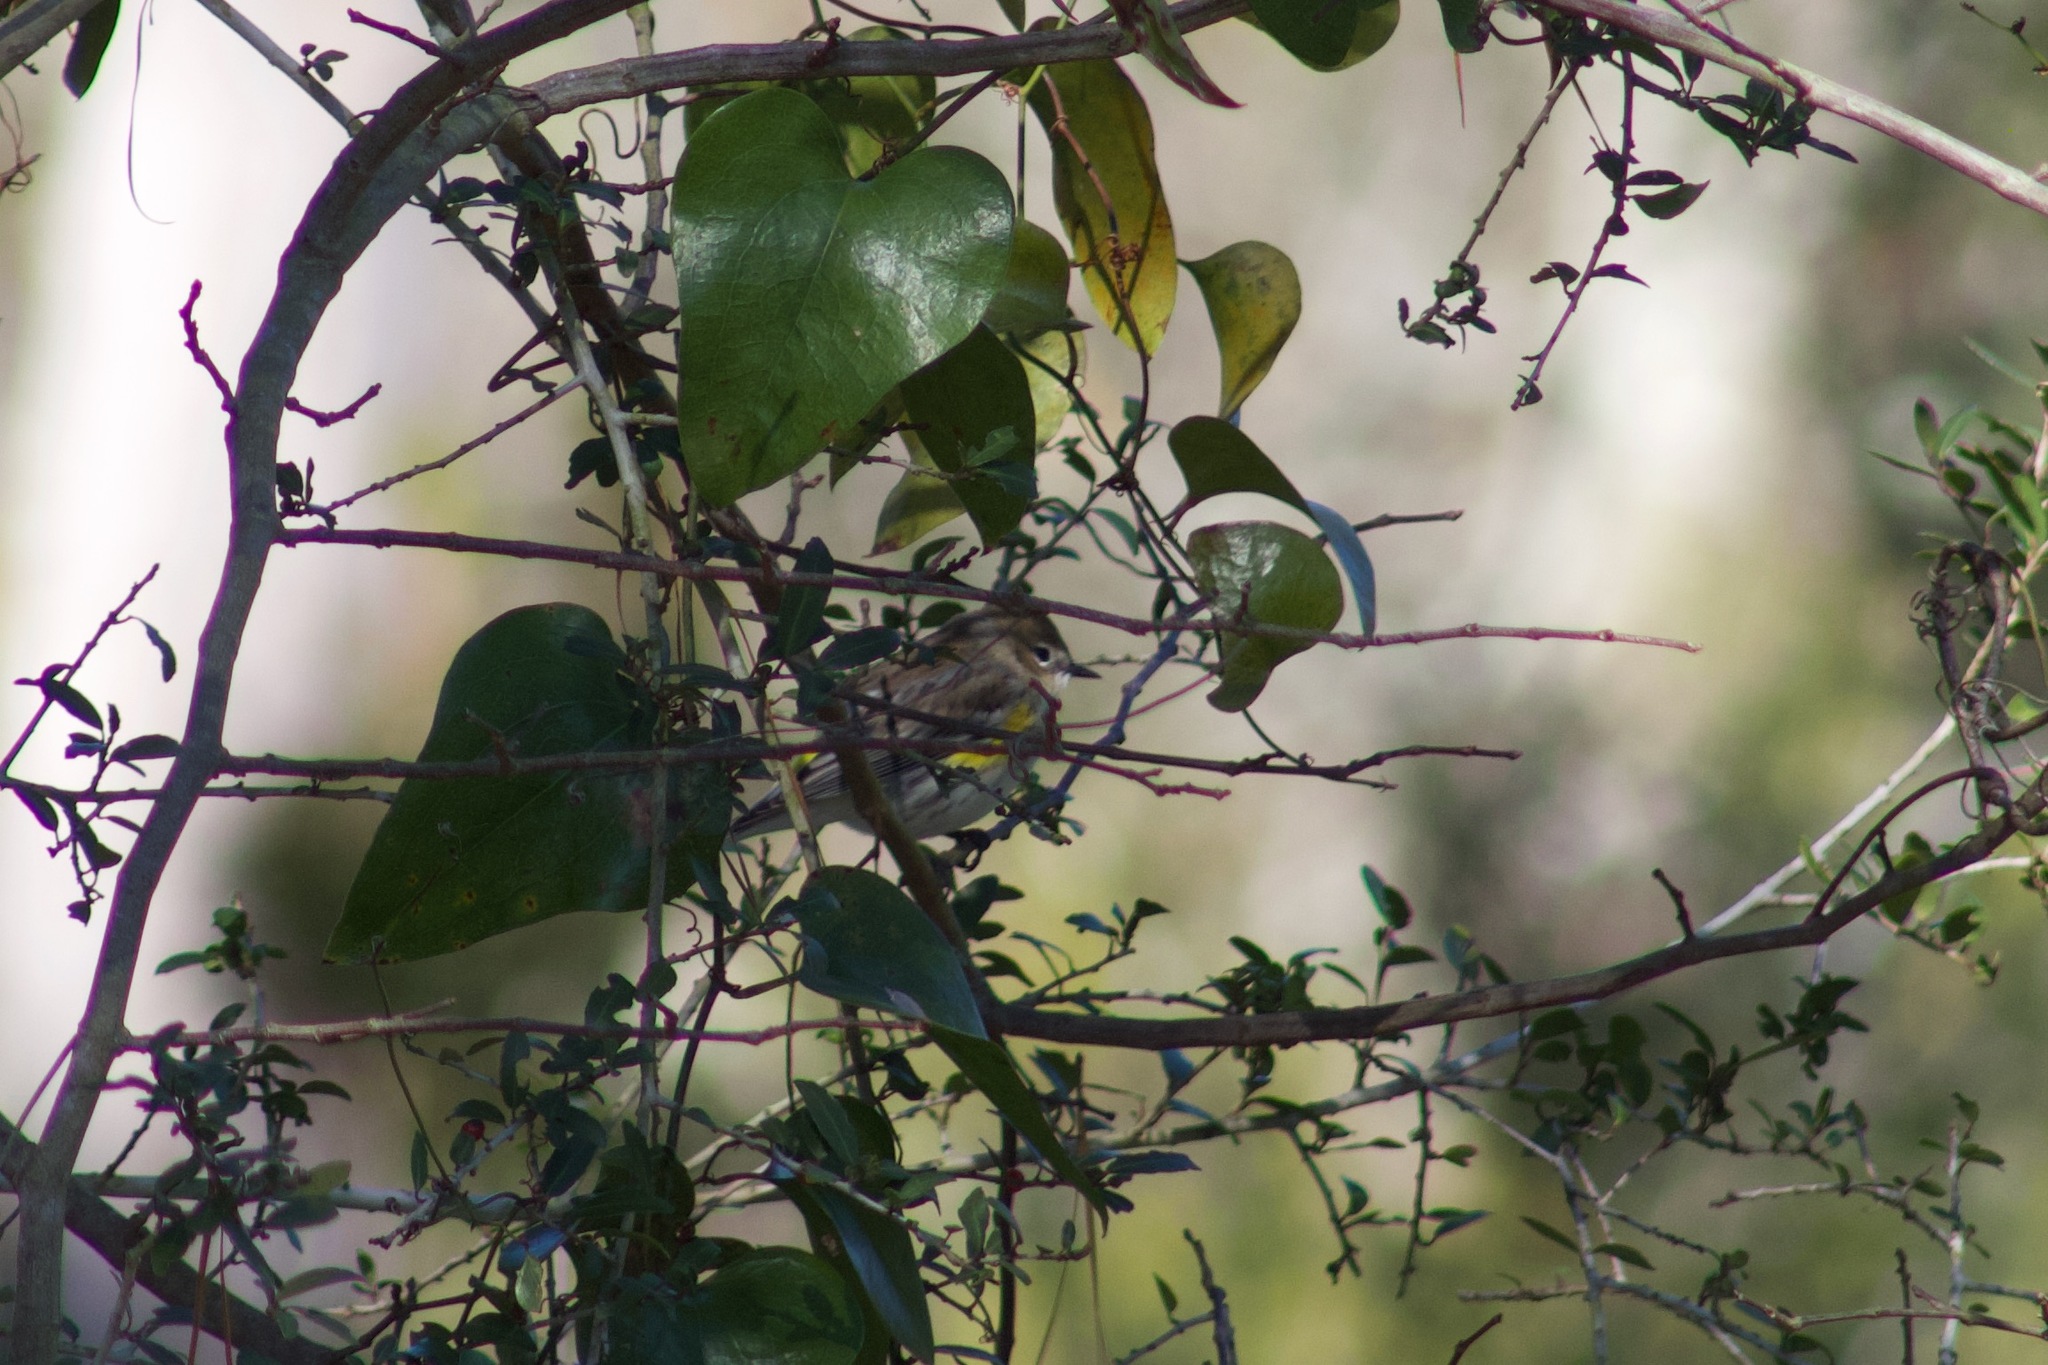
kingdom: Animalia
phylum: Chordata
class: Aves
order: Passeriformes
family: Parulidae
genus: Setophaga
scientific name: Setophaga coronata
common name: Myrtle warbler
